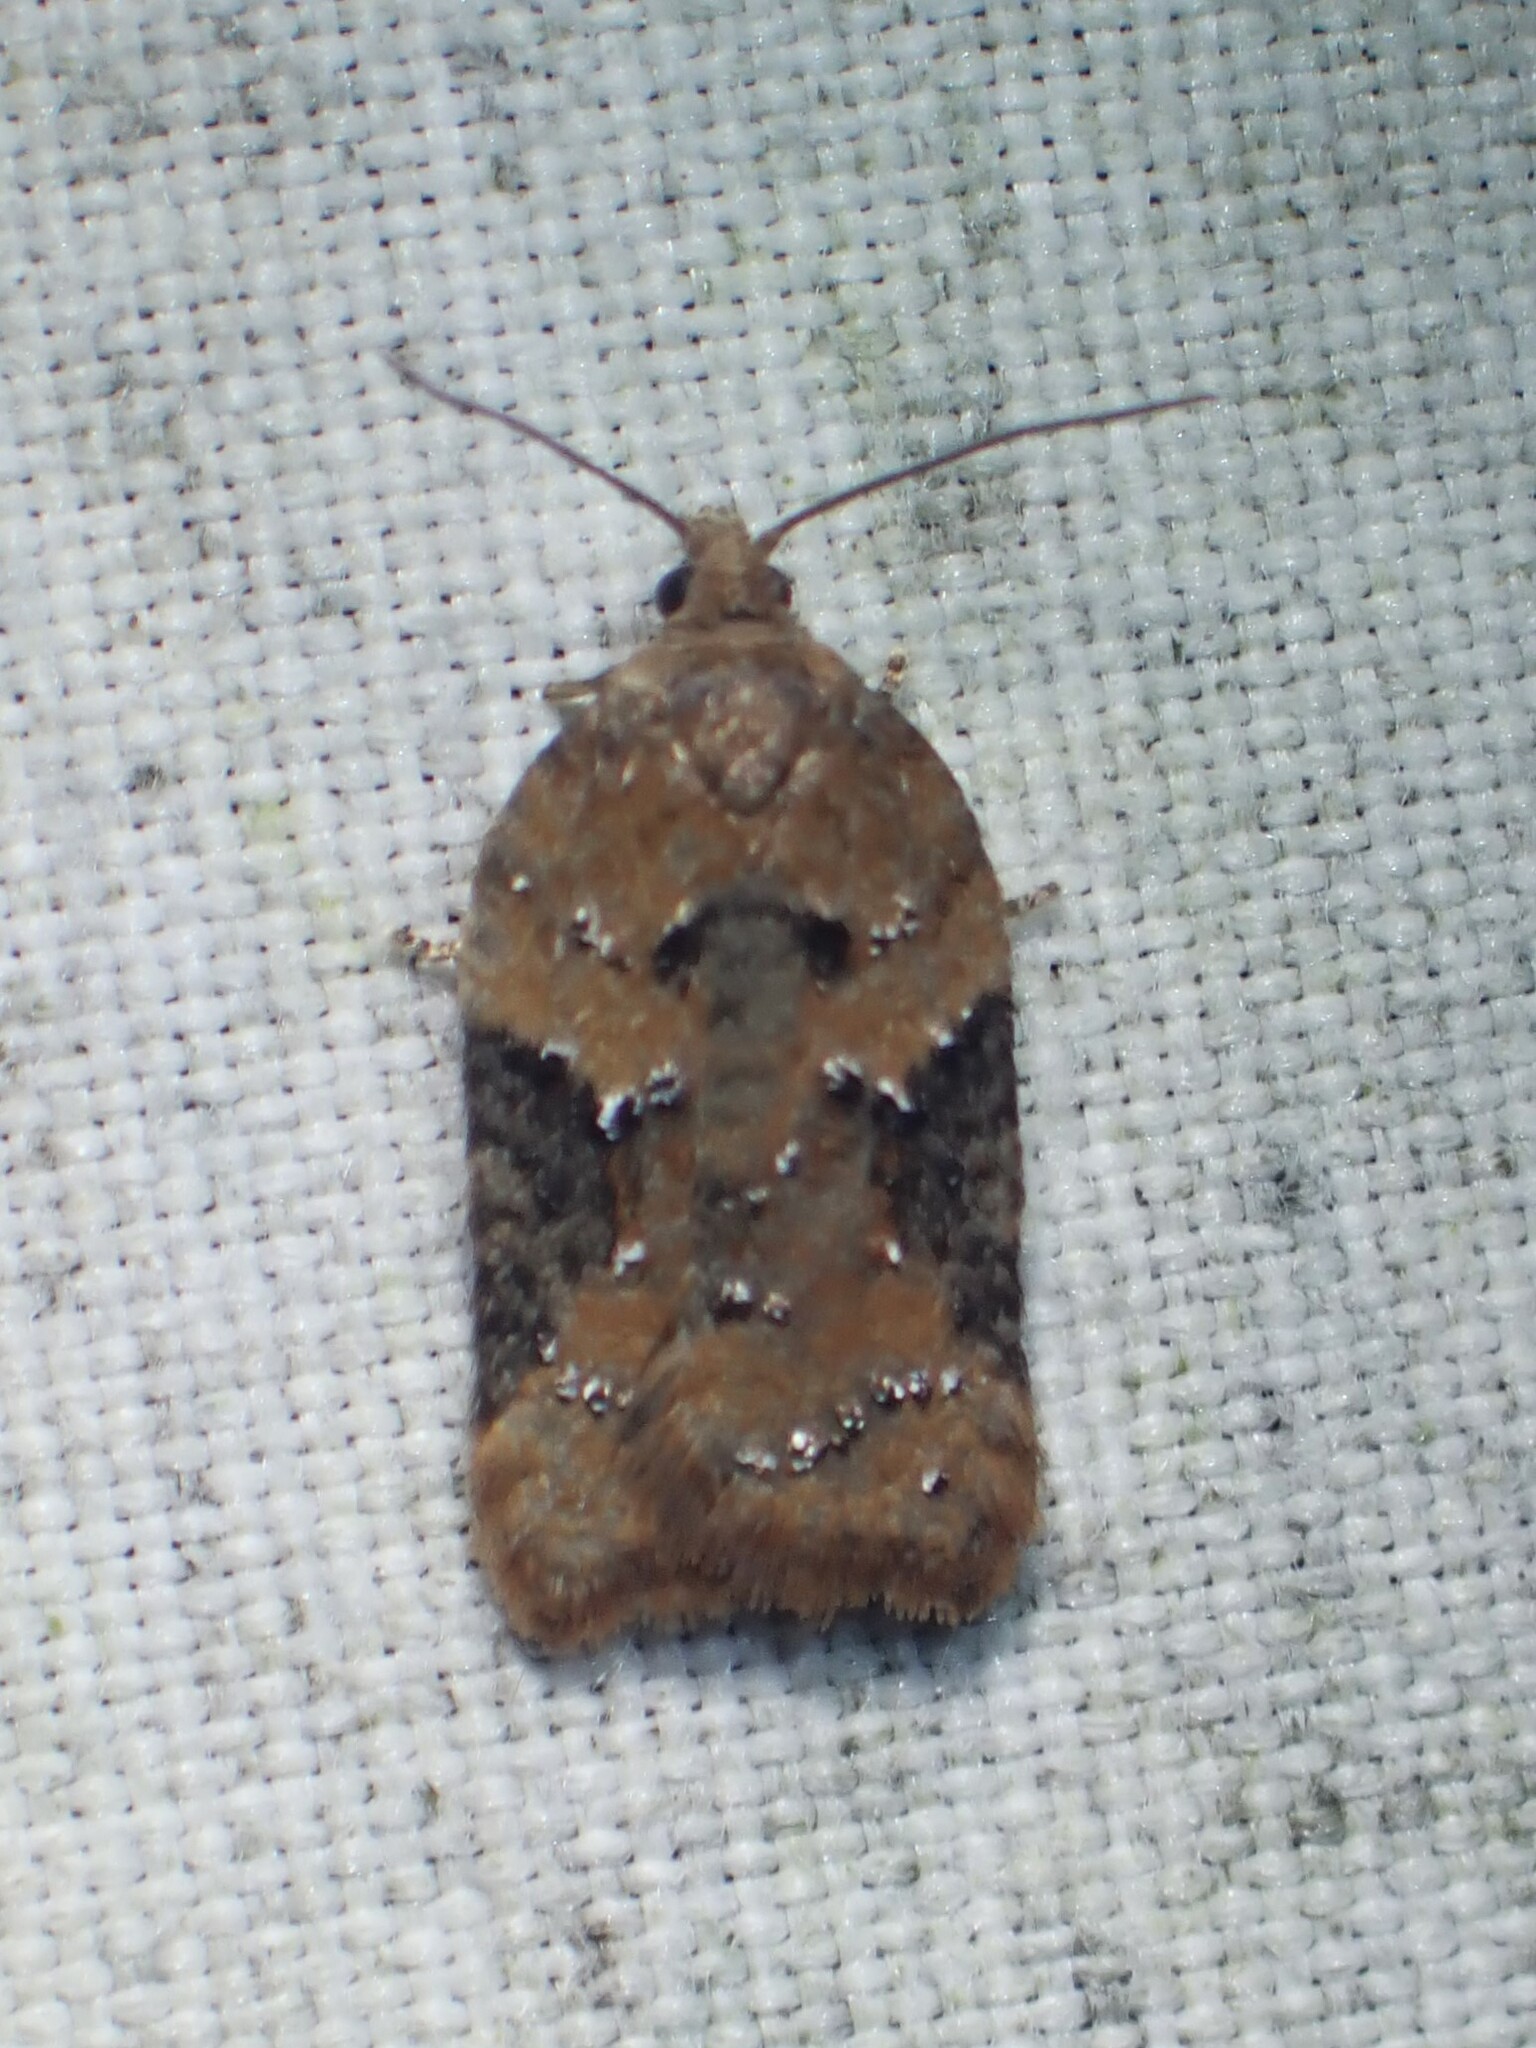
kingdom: Animalia
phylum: Arthropoda
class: Insecta
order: Lepidoptera
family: Tortricidae
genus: Acleris
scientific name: Acleris braunana
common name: Alder leafroller
